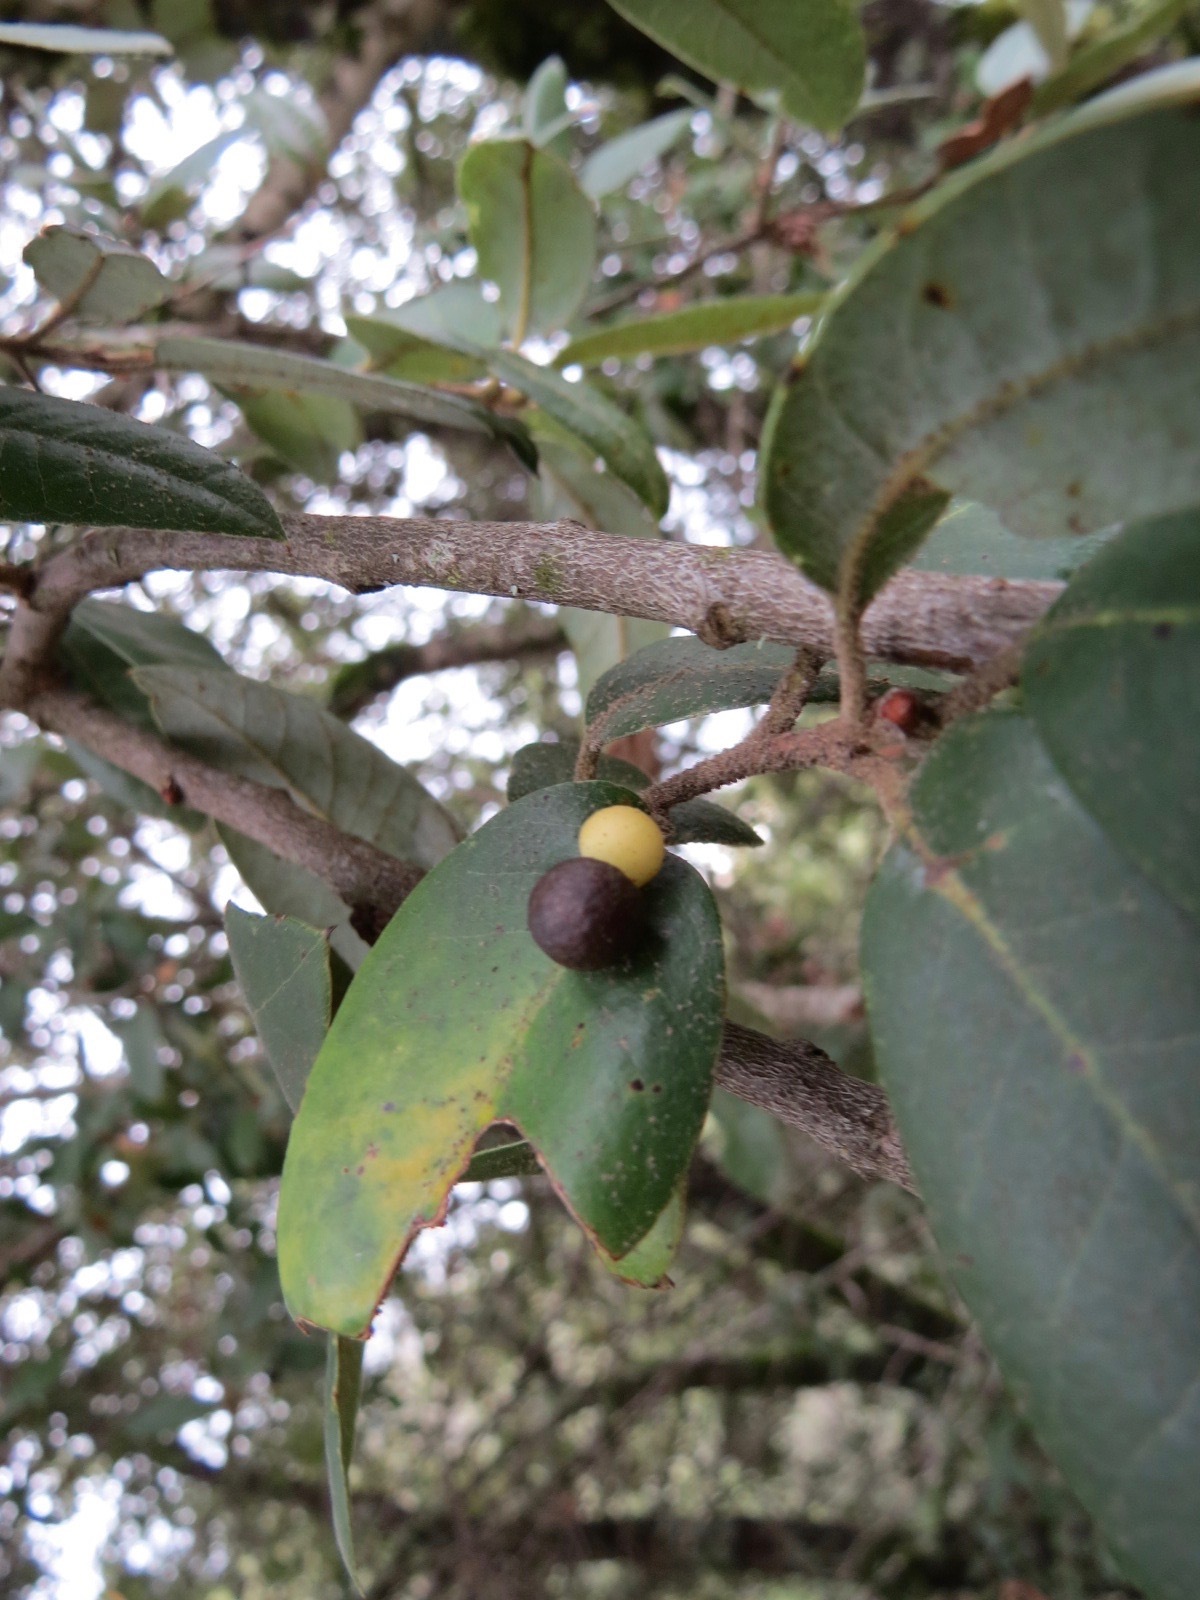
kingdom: Animalia
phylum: Arthropoda
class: Insecta
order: Hymenoptera
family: Cynipidae
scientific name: Cynipidae
